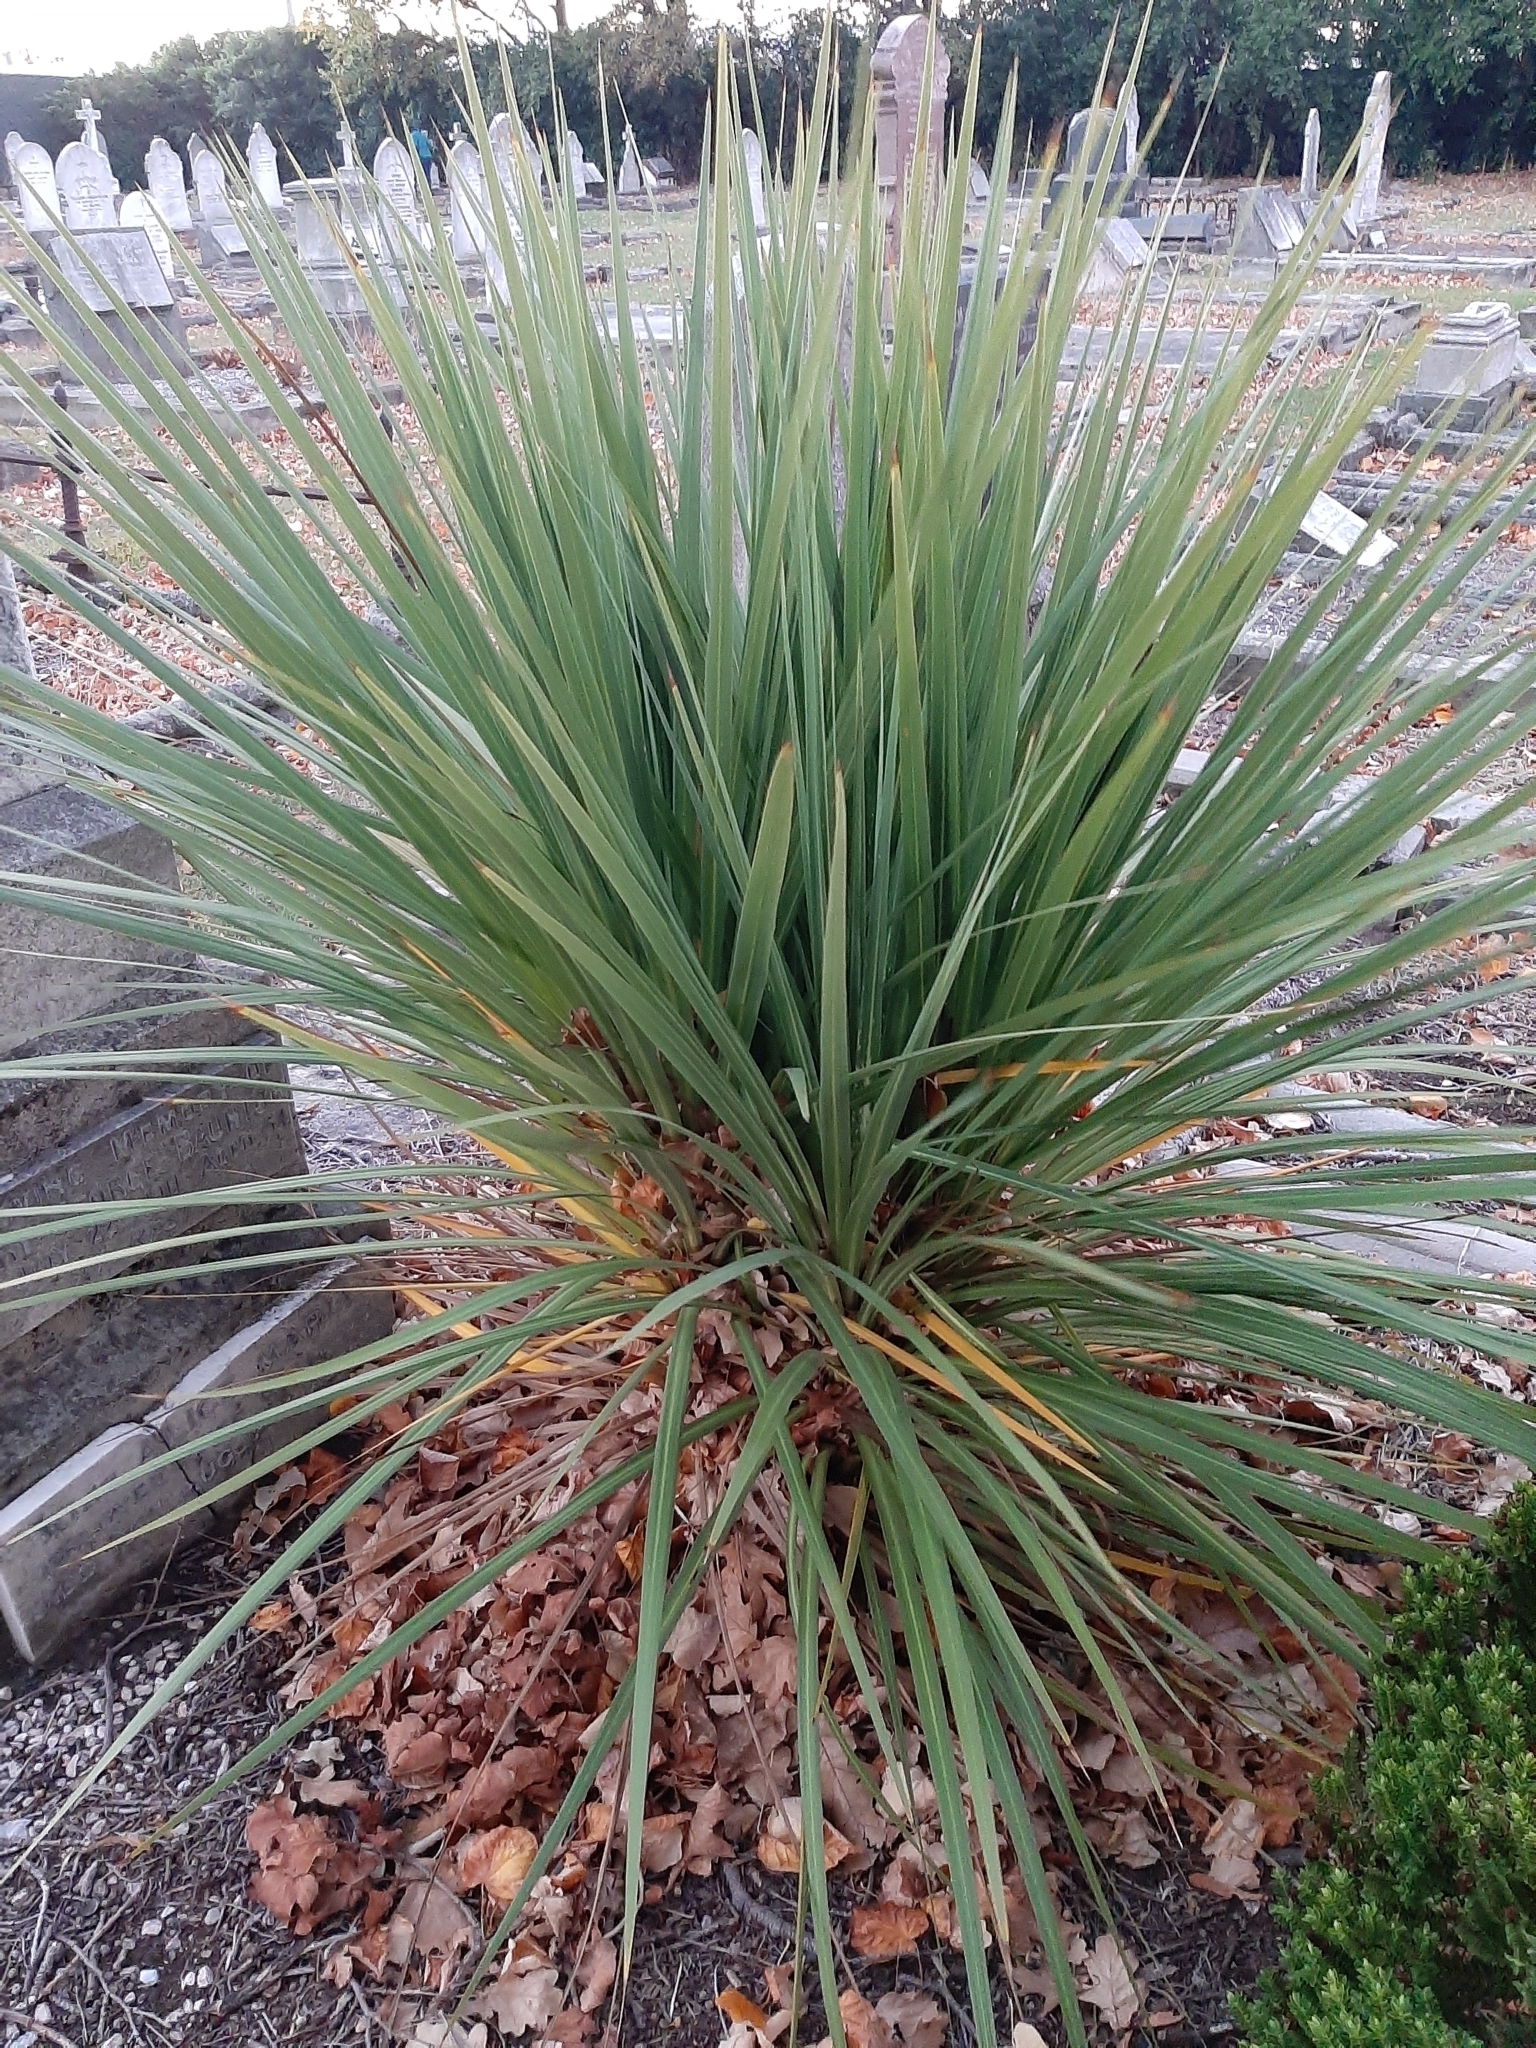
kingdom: Plantae
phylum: Tracheophyta
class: Liliopsida
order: Asparagales
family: Asparagaceae
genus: Cordyline
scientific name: Cordyline australis
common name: Cabbage-palm
